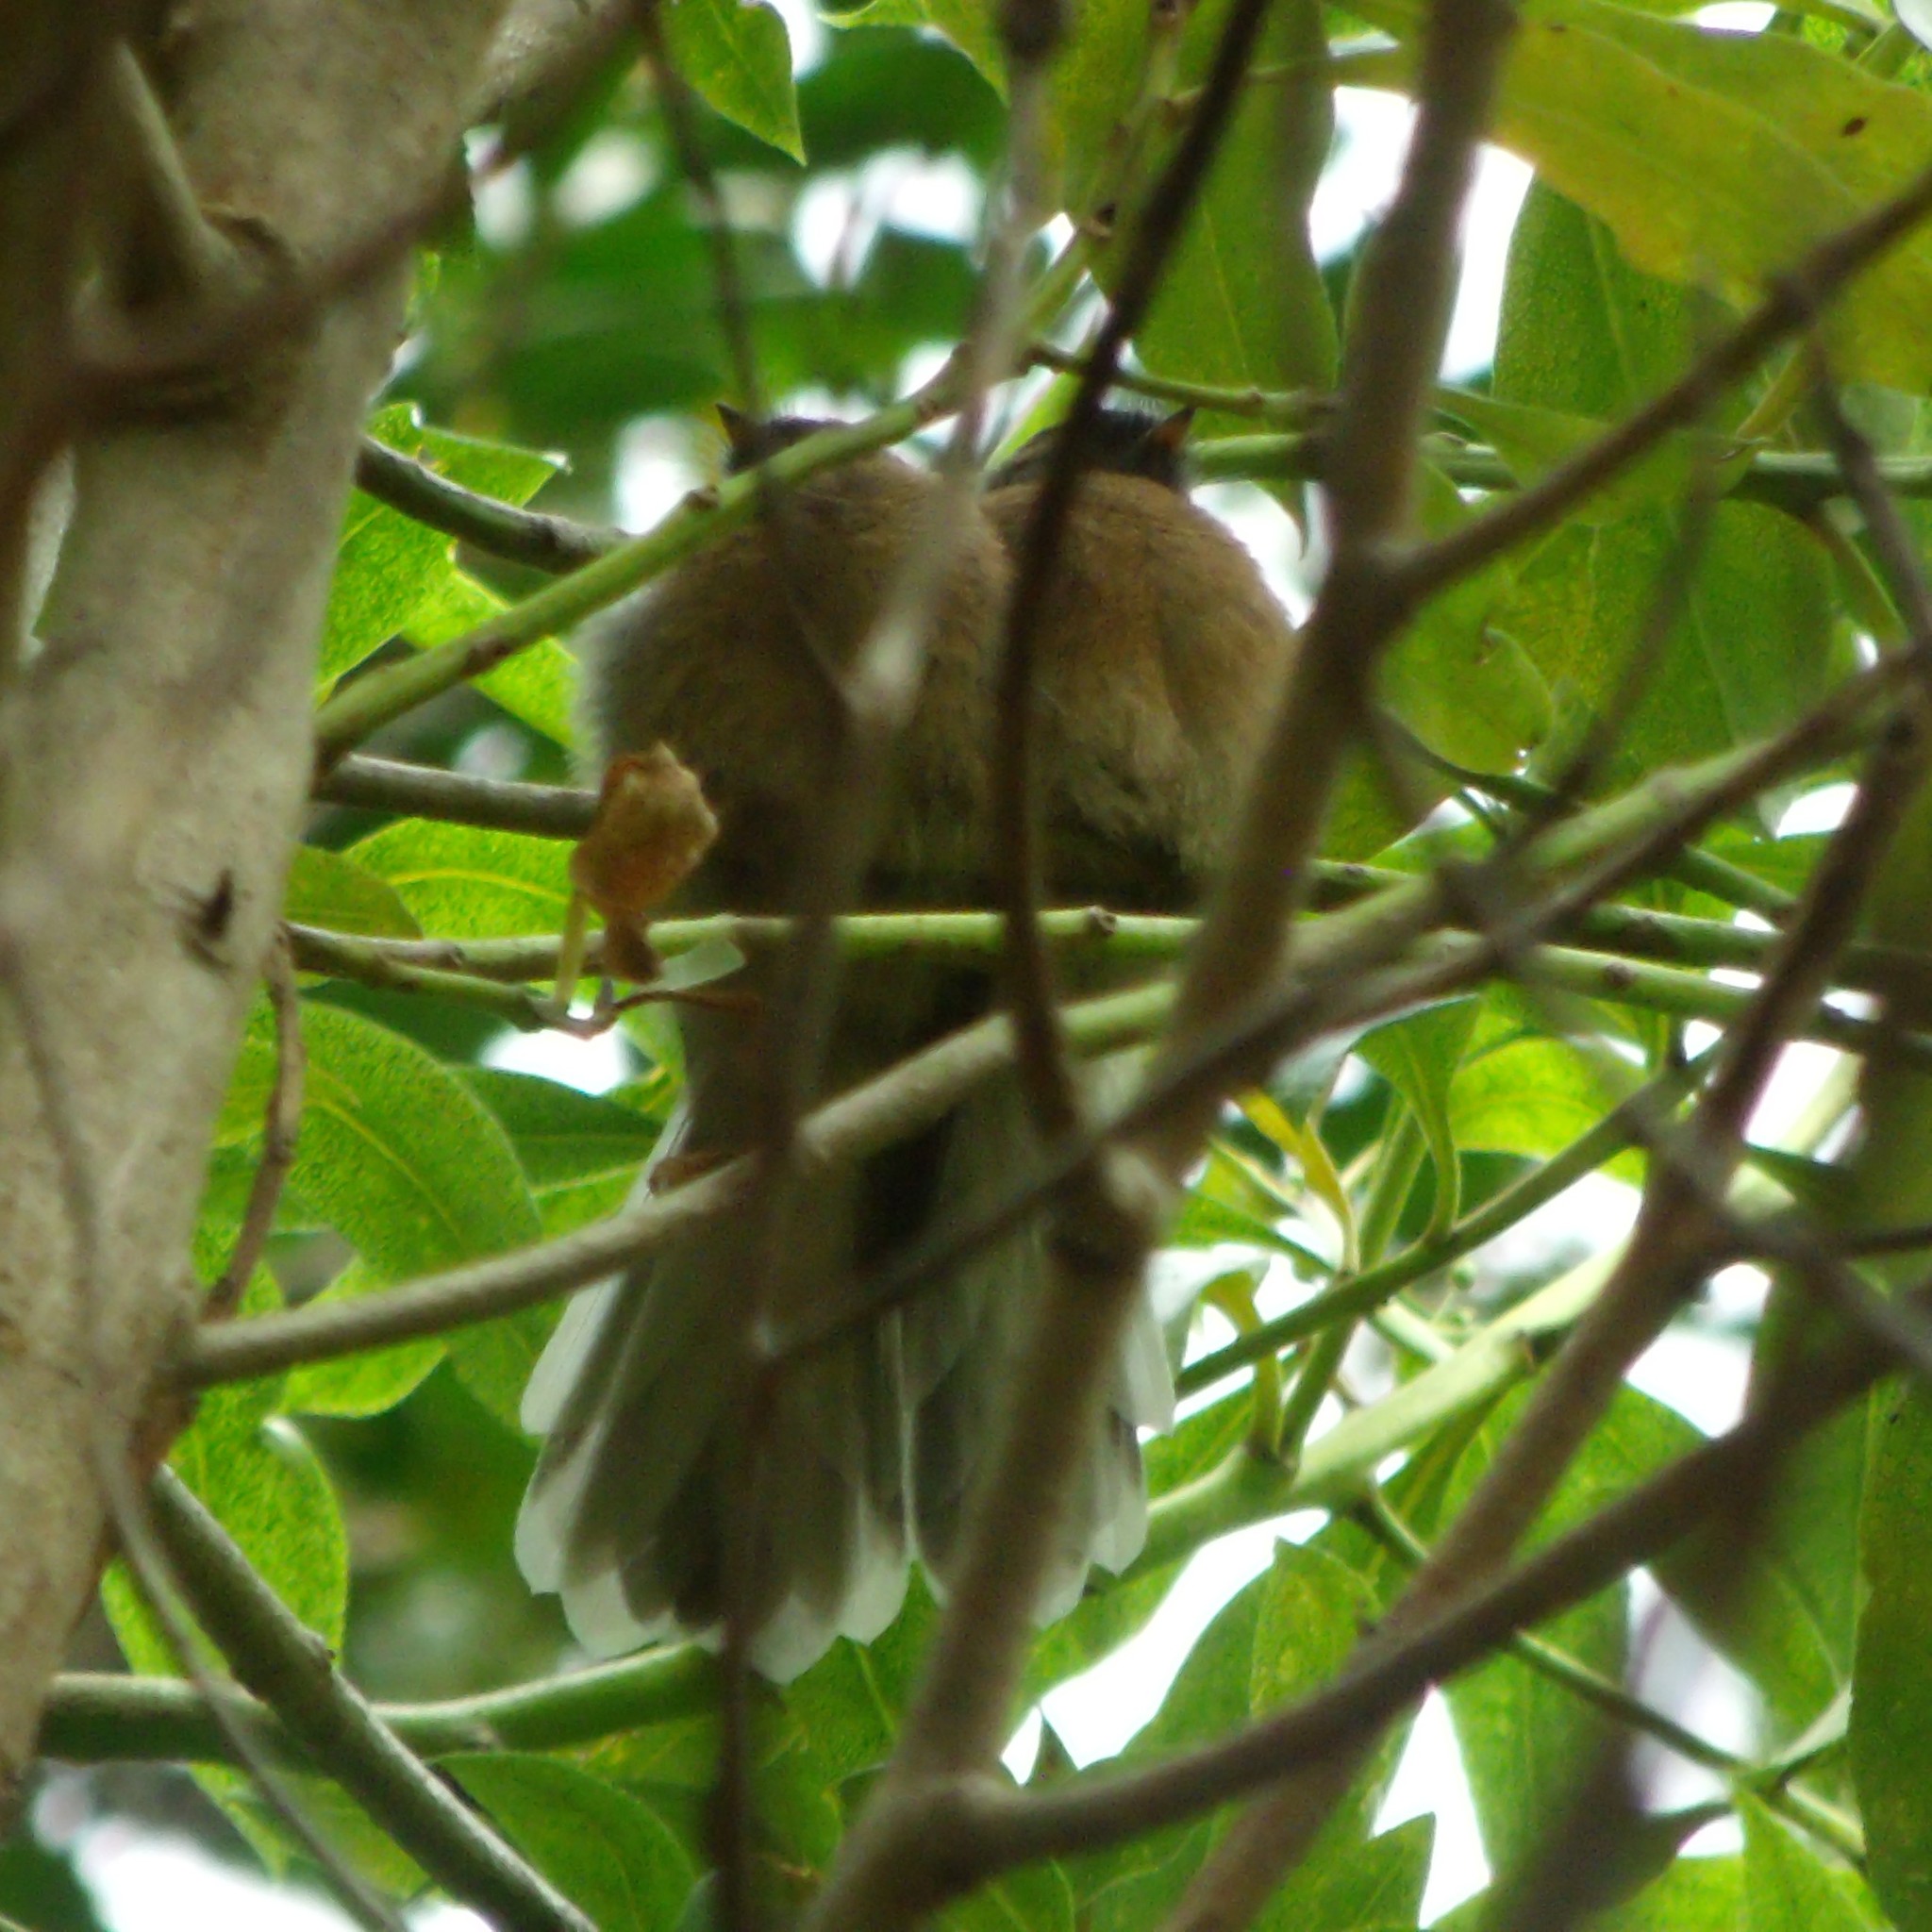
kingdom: Animalia
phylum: Chordata
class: Aves
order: Passeriformes
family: Rhipiduridae
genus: Rhipidura
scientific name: Rhipidura fuliginosa
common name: New zealand fantail
